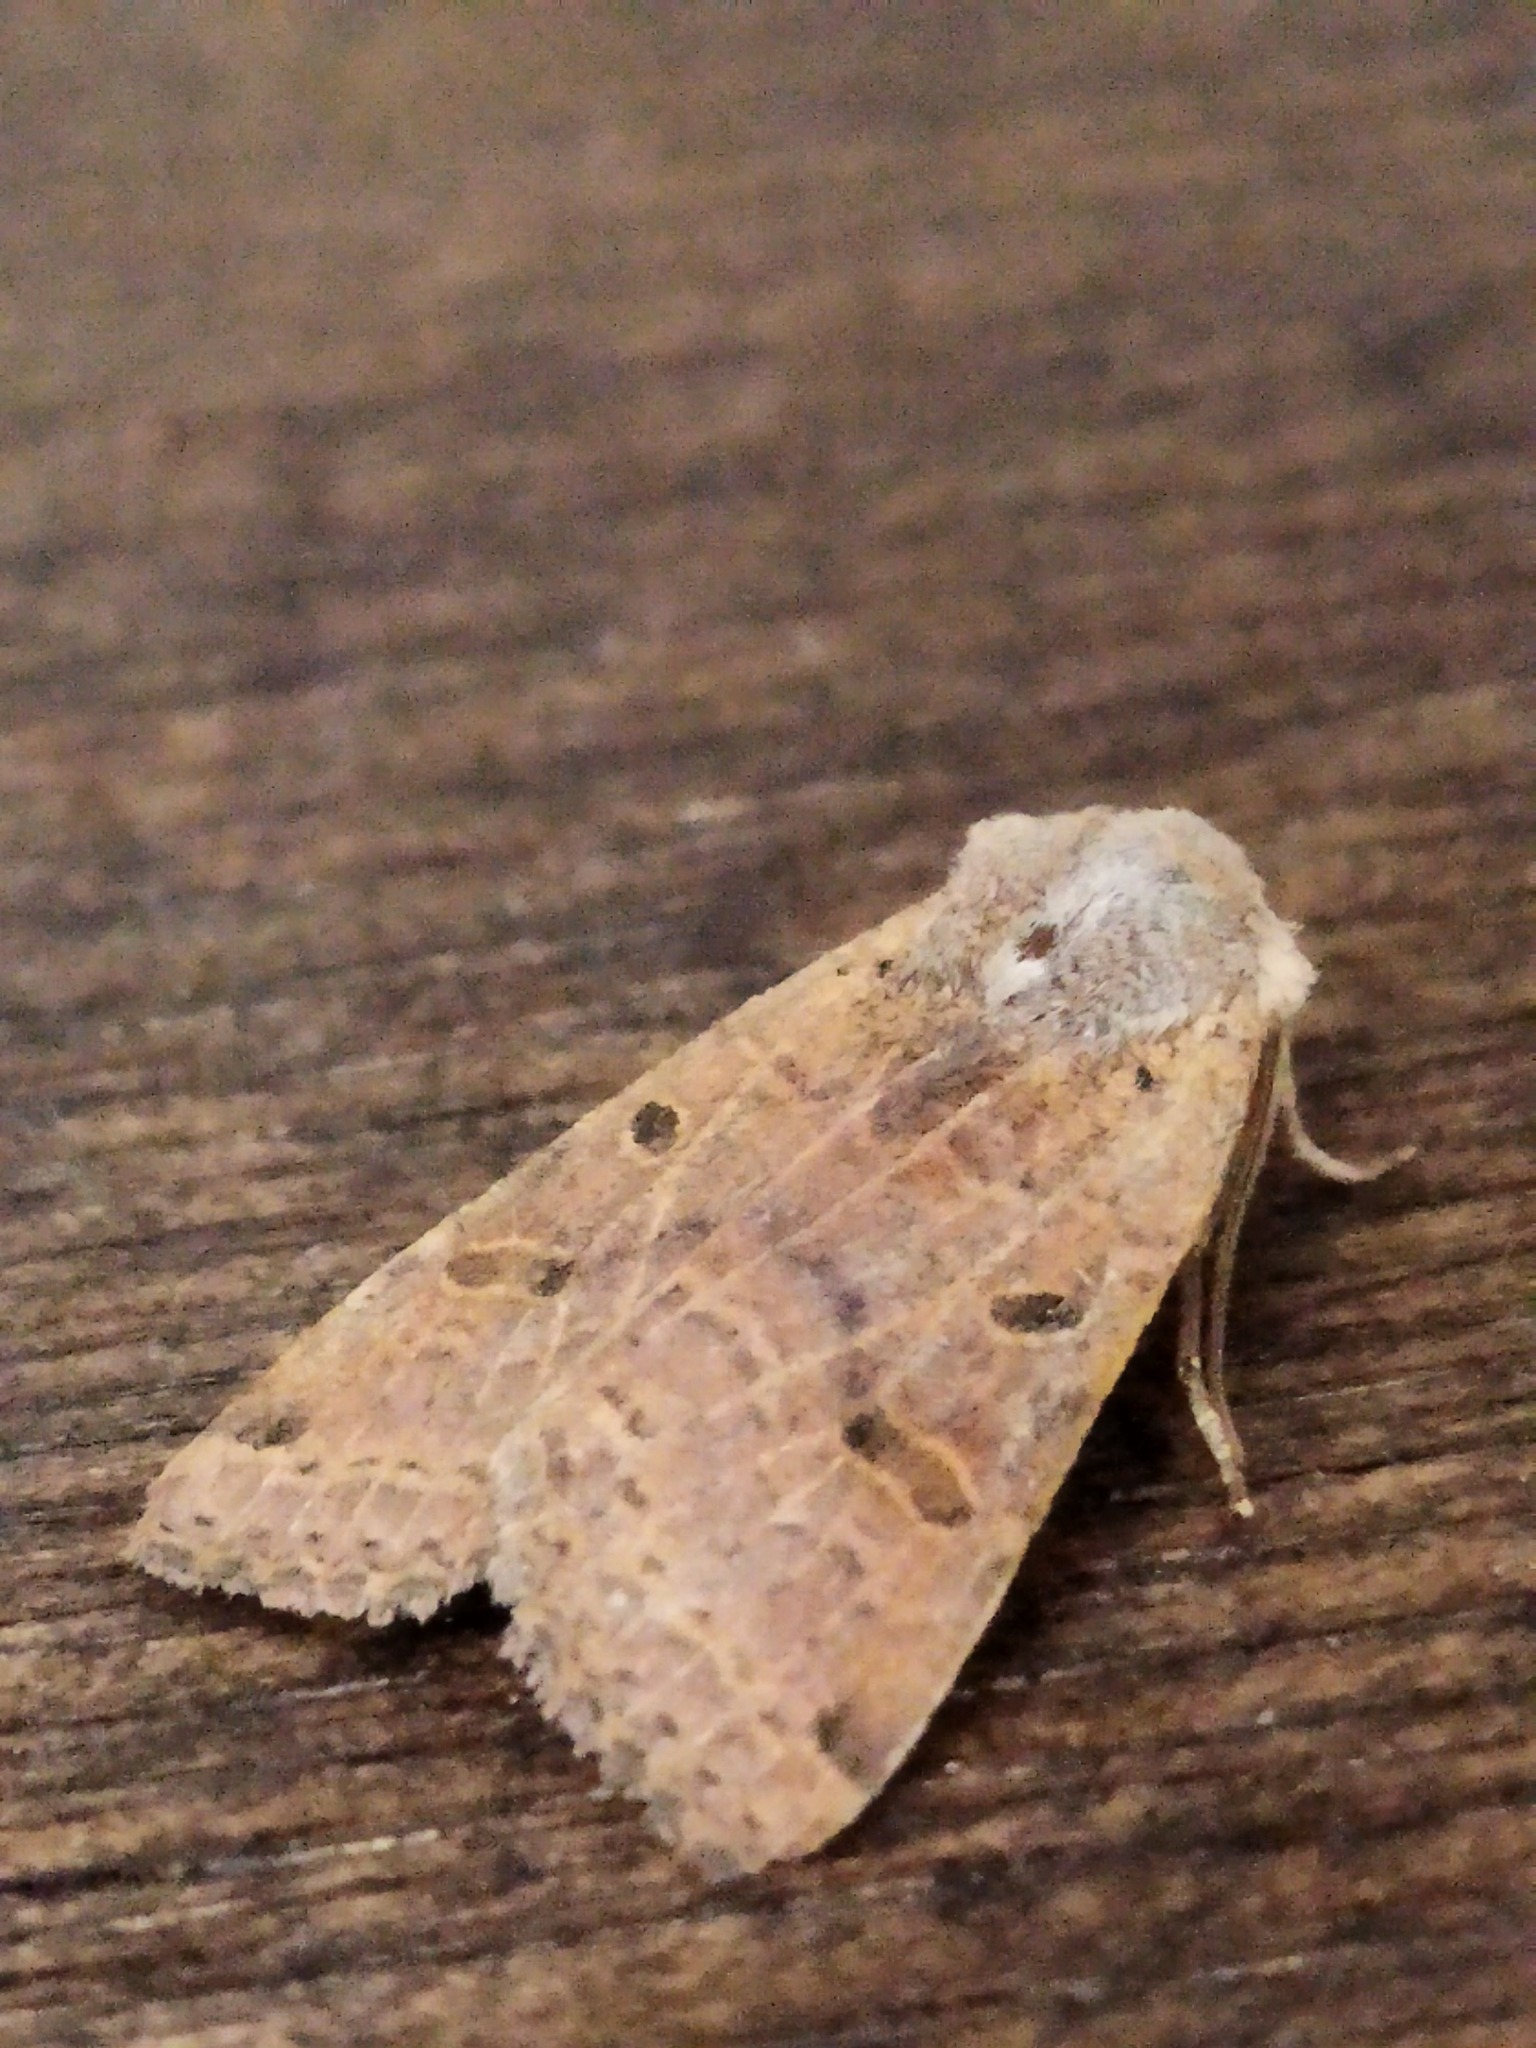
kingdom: Animalia
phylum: Arthropoda
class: Insecta
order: Lepidoptera
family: Noctuidae
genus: Agrochola
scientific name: Agrochola lychnidis
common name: Beaded chestnut
